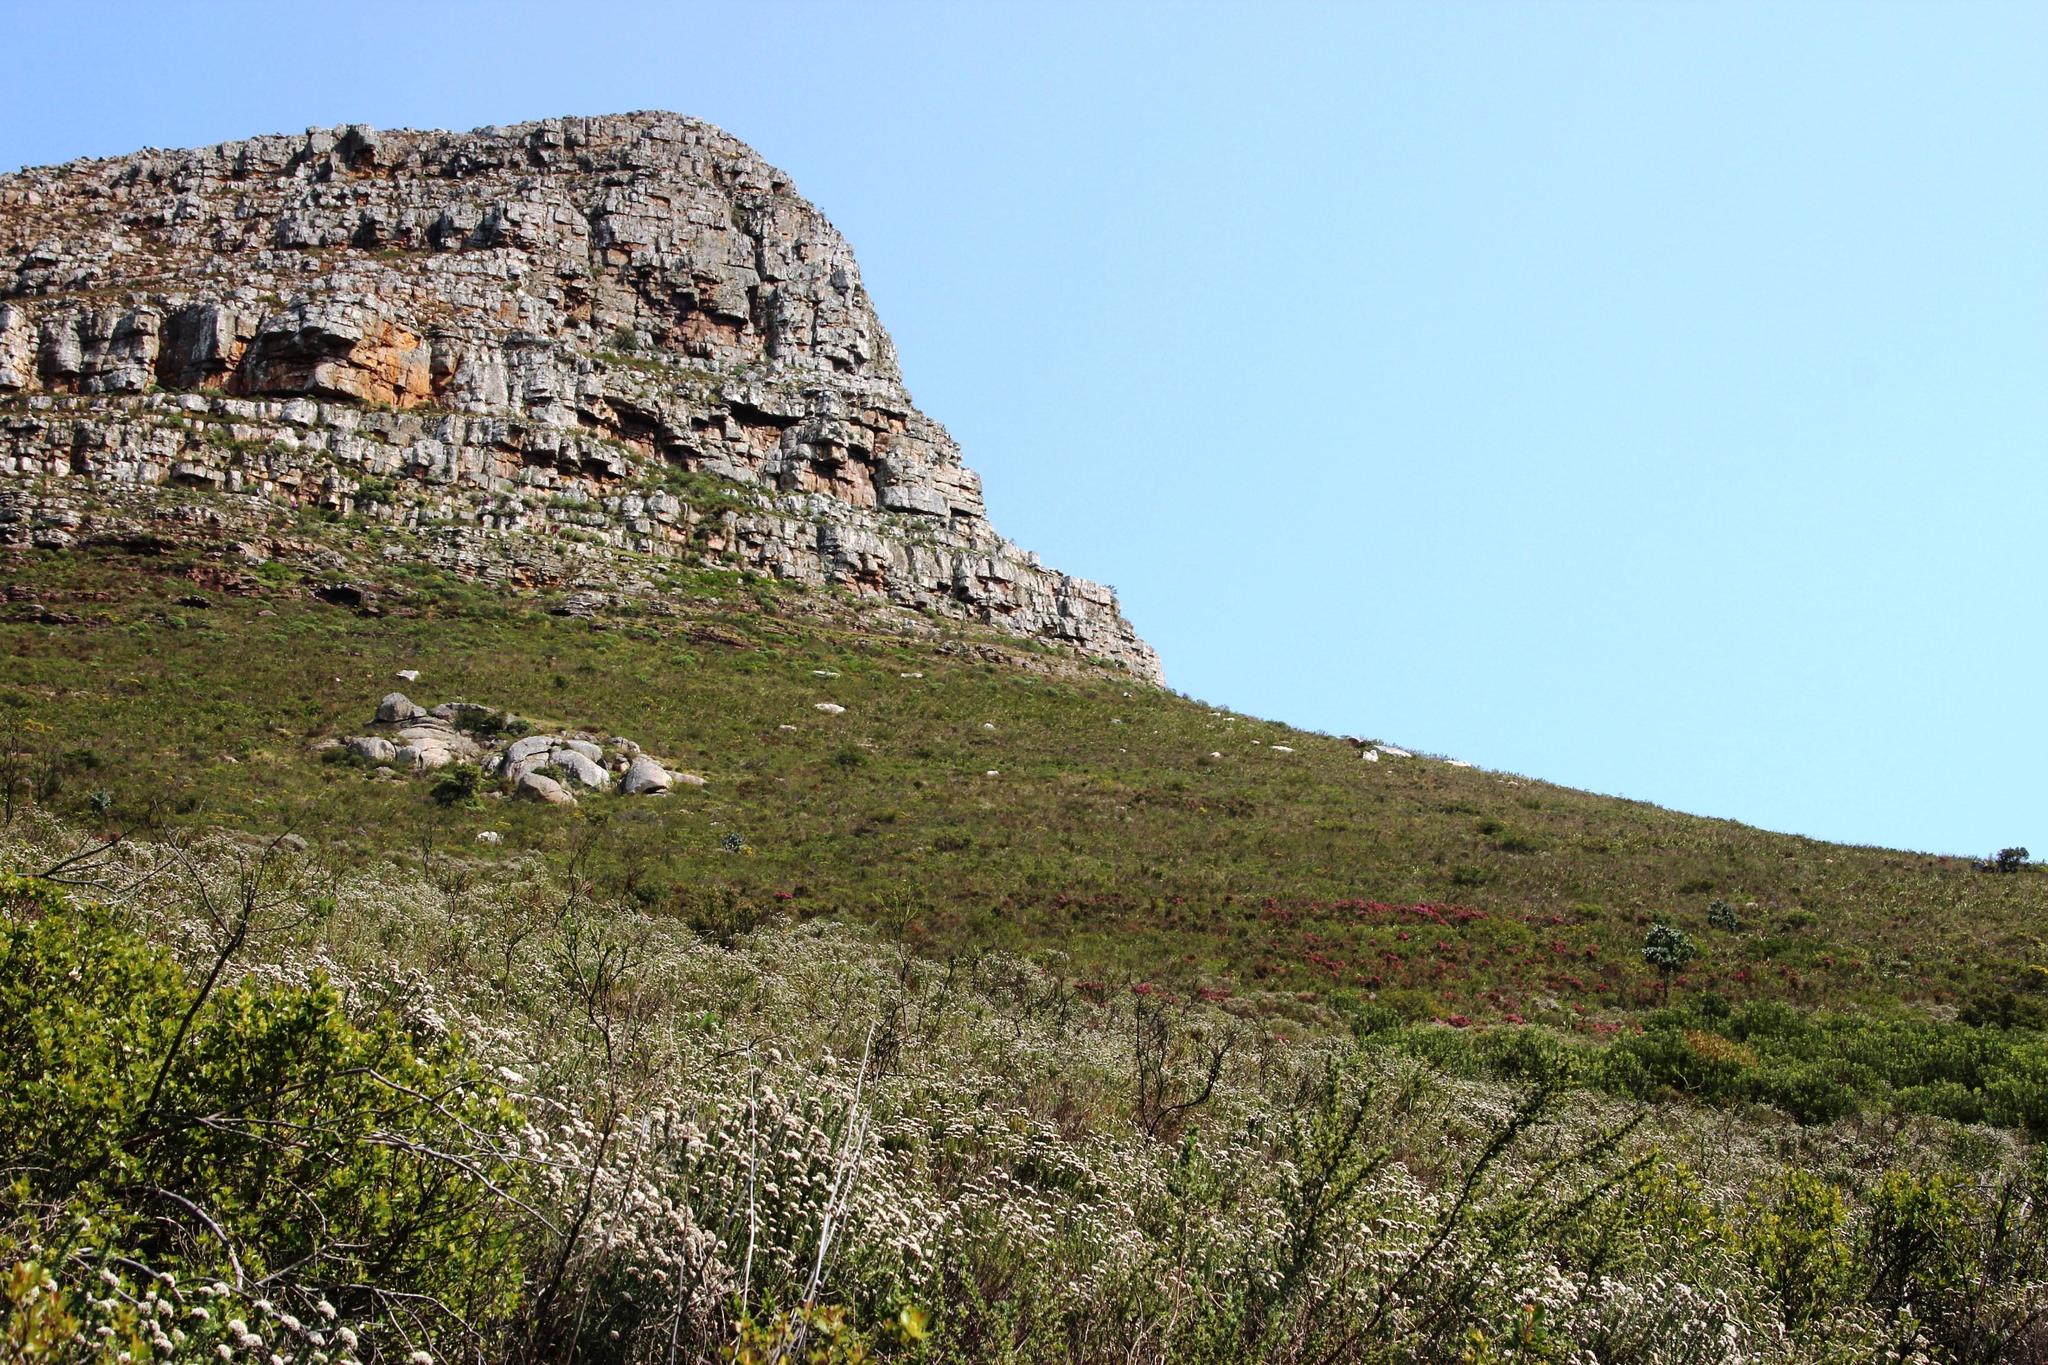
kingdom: Plantae
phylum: Tracheophyta
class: Magnoliopsida
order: Ericales
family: Ericaceae
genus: Erica
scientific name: Erica baccans
